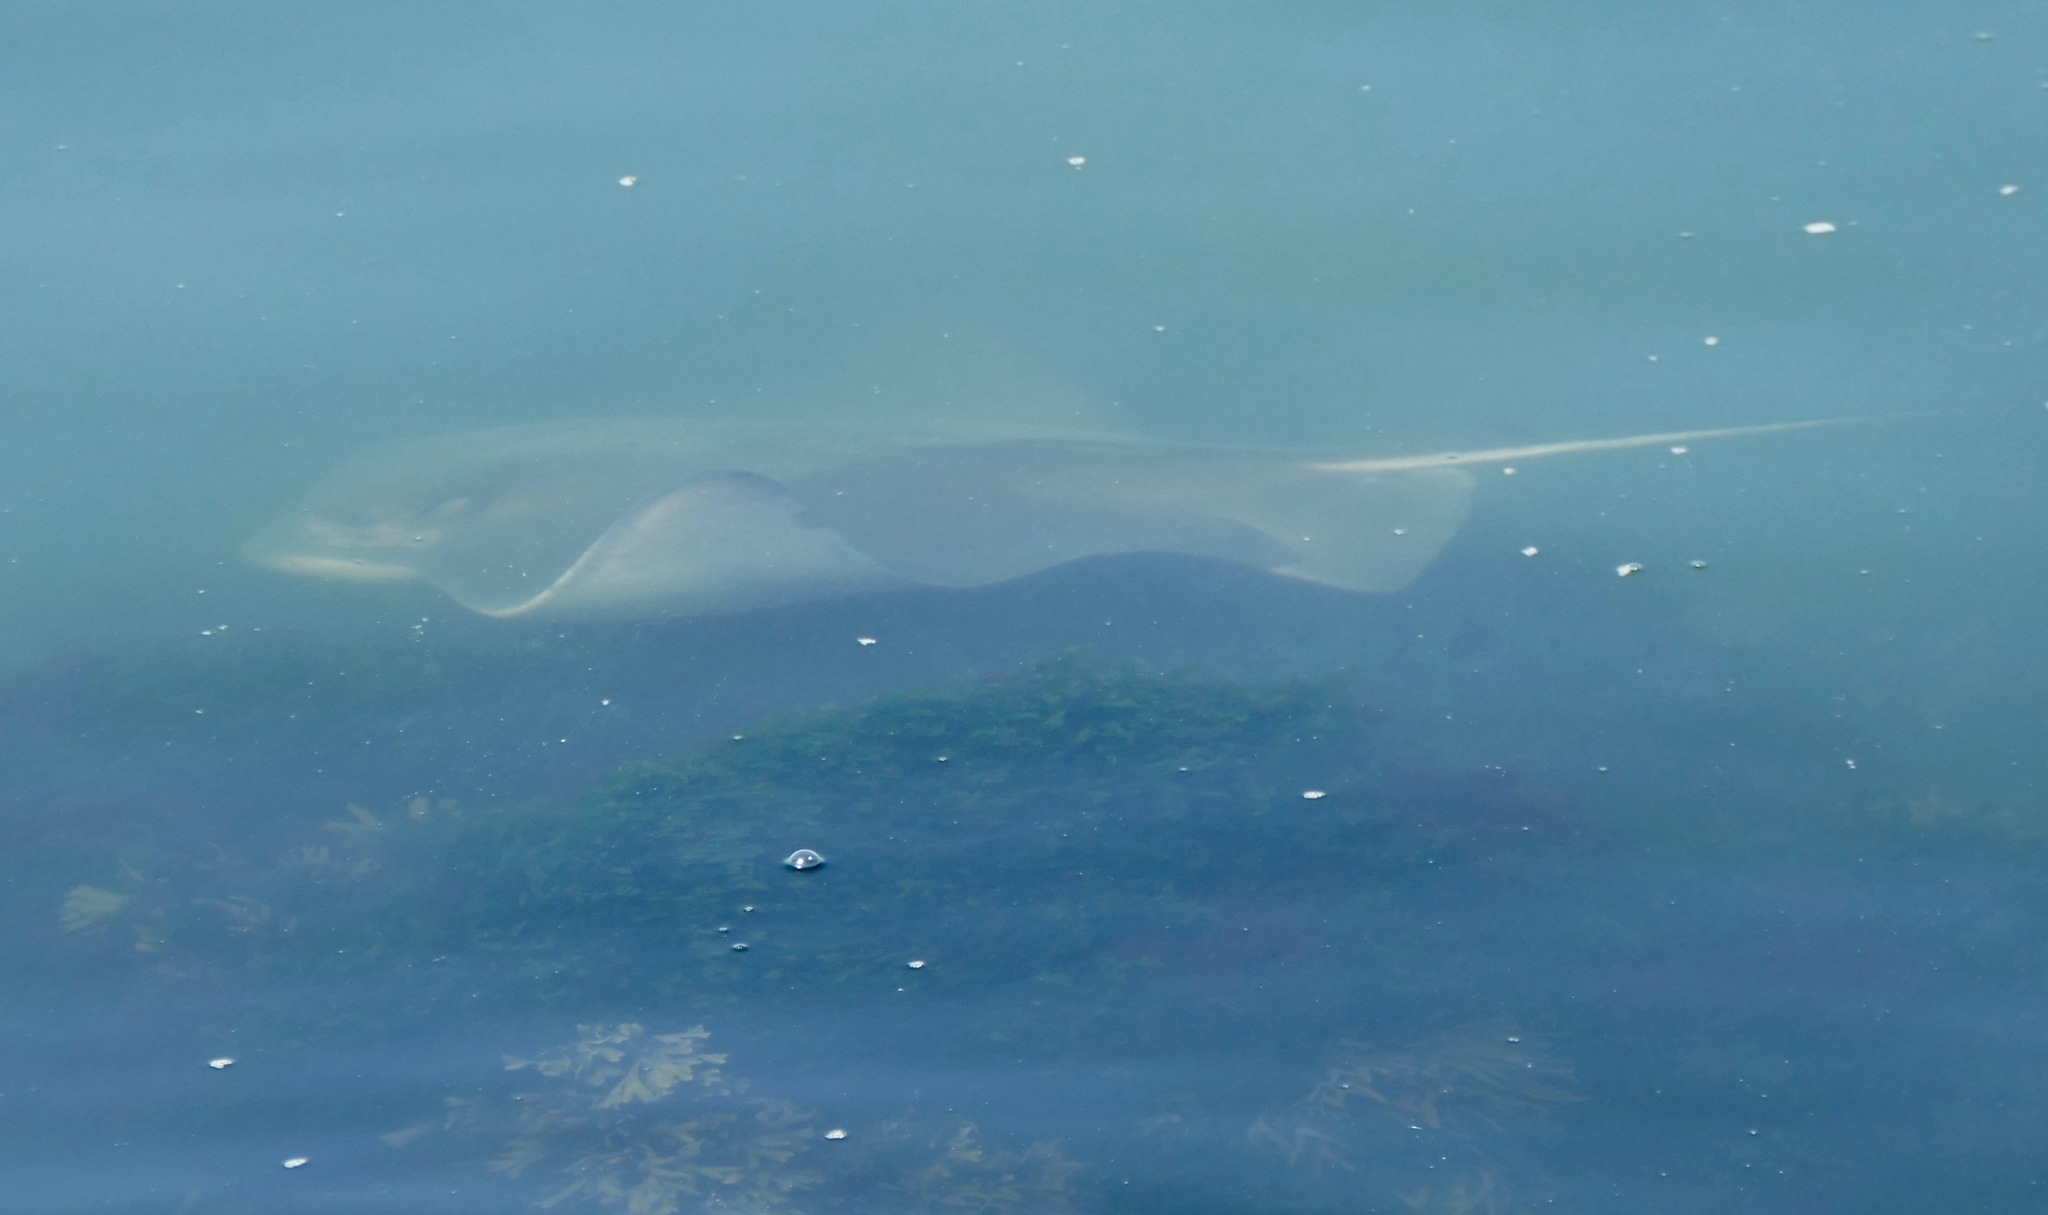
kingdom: Animalia
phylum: Chordata
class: Elasmobranchii
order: Myliobatiformes
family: Myliobatidae
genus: Myliobatis
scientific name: Myliobatis californica
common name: Bat ray
